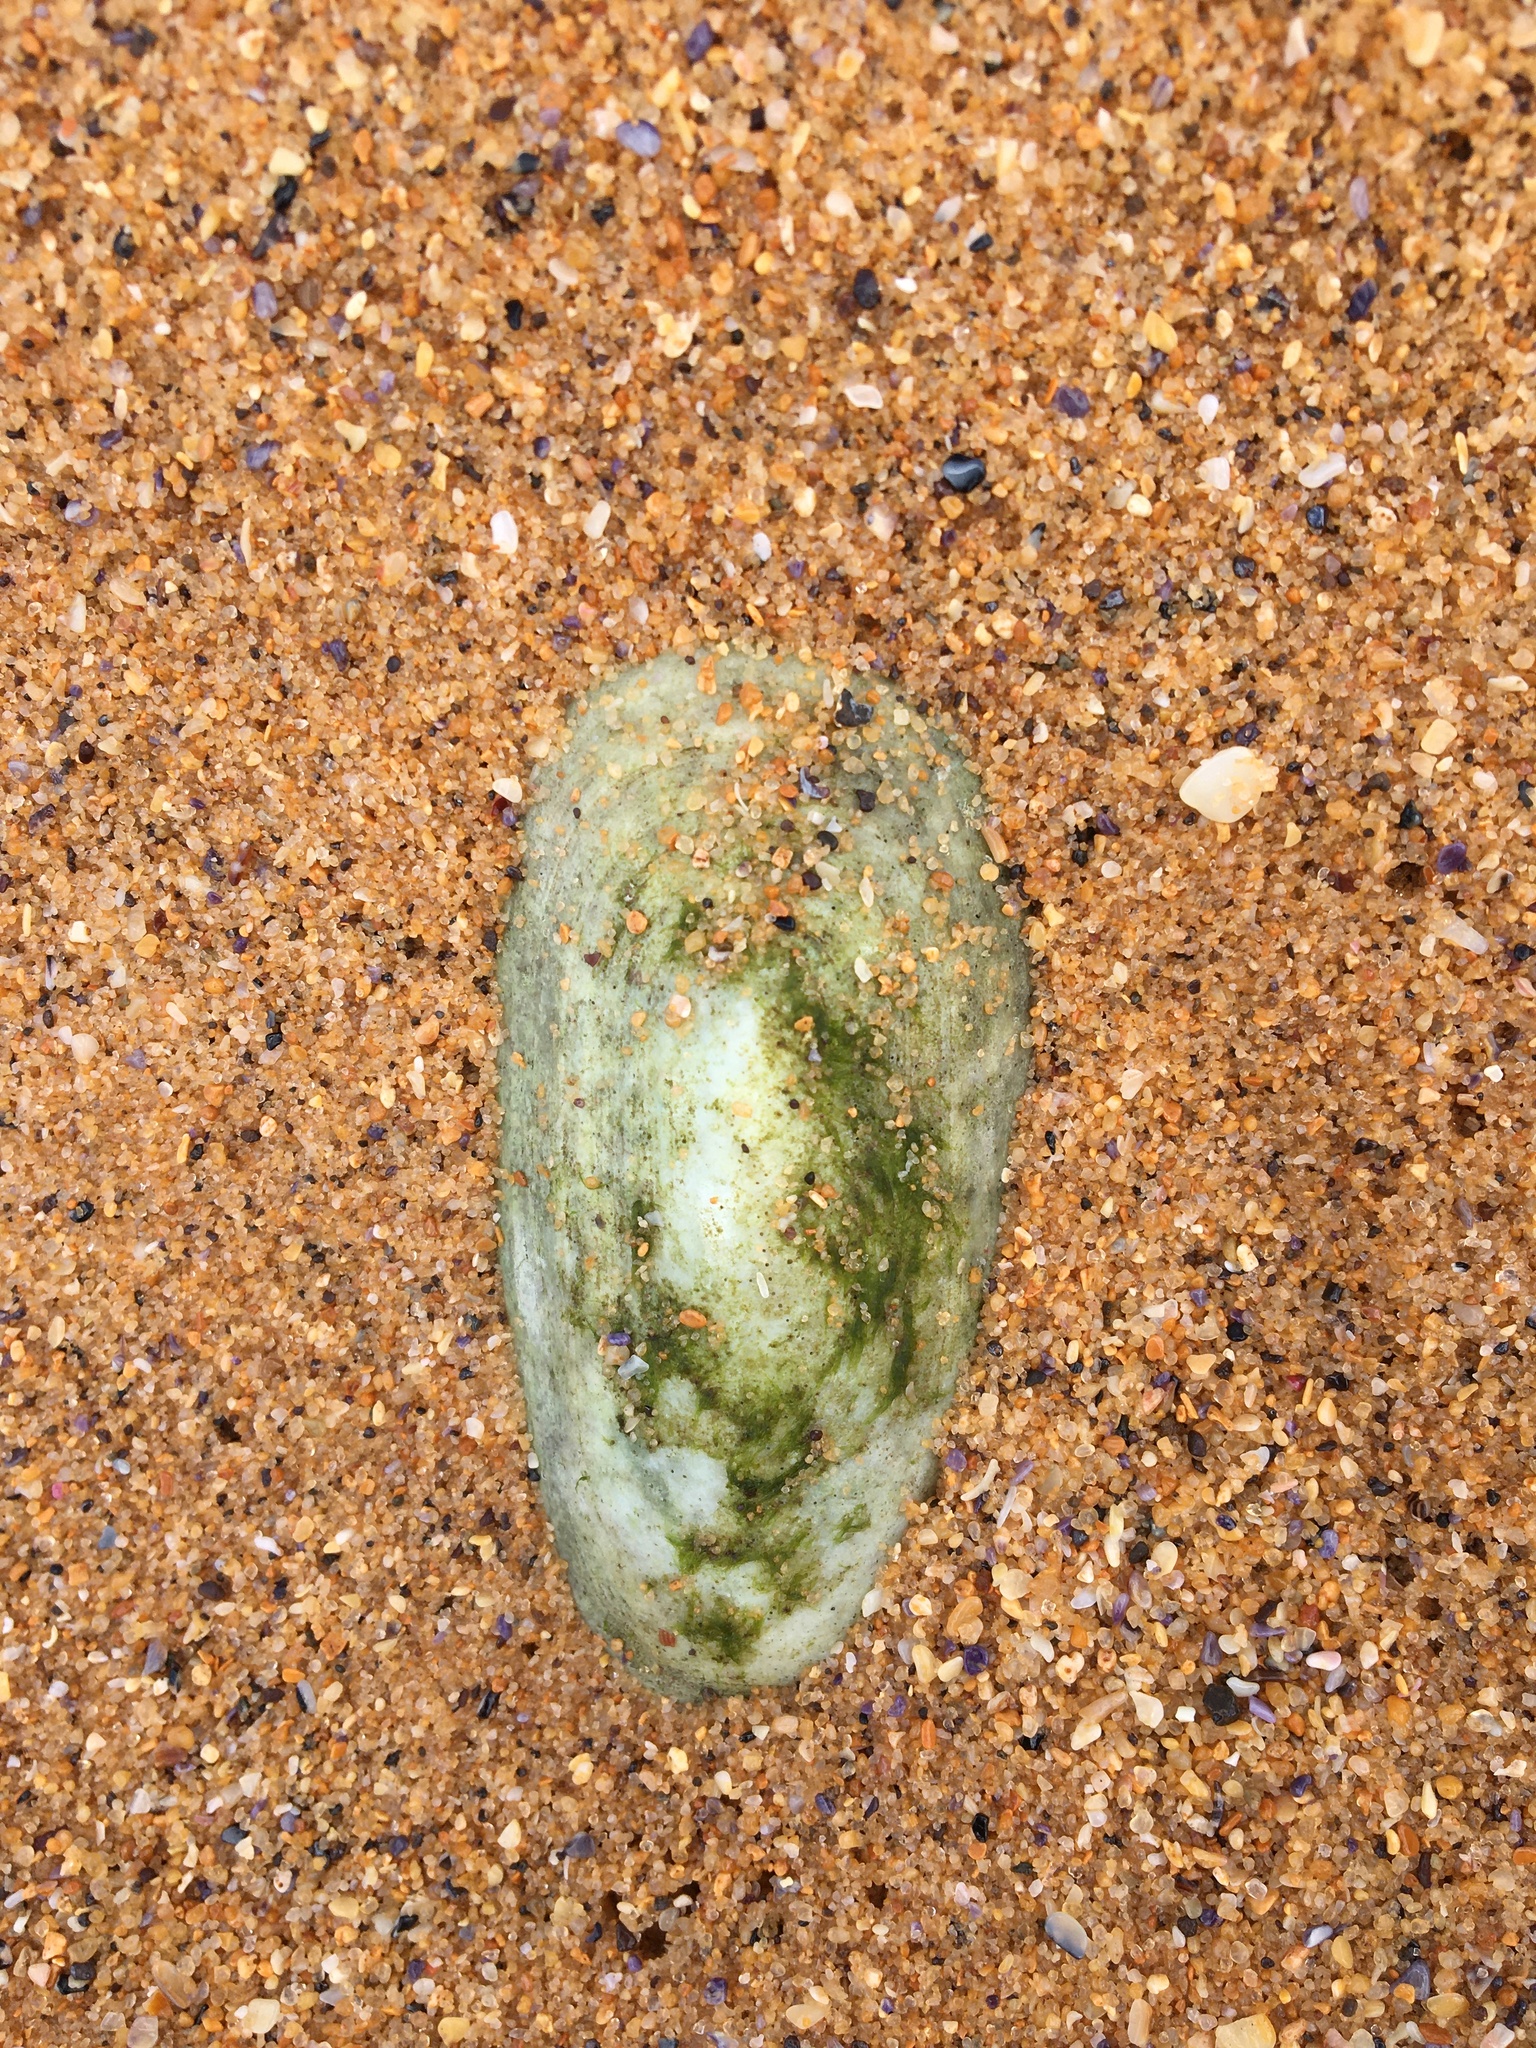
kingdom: Animalia
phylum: Mollusca
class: Gastropoda
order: Lepetellida
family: Fissurellidae
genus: Scutus
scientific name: Scutus antipodes
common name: Duckbill shell
